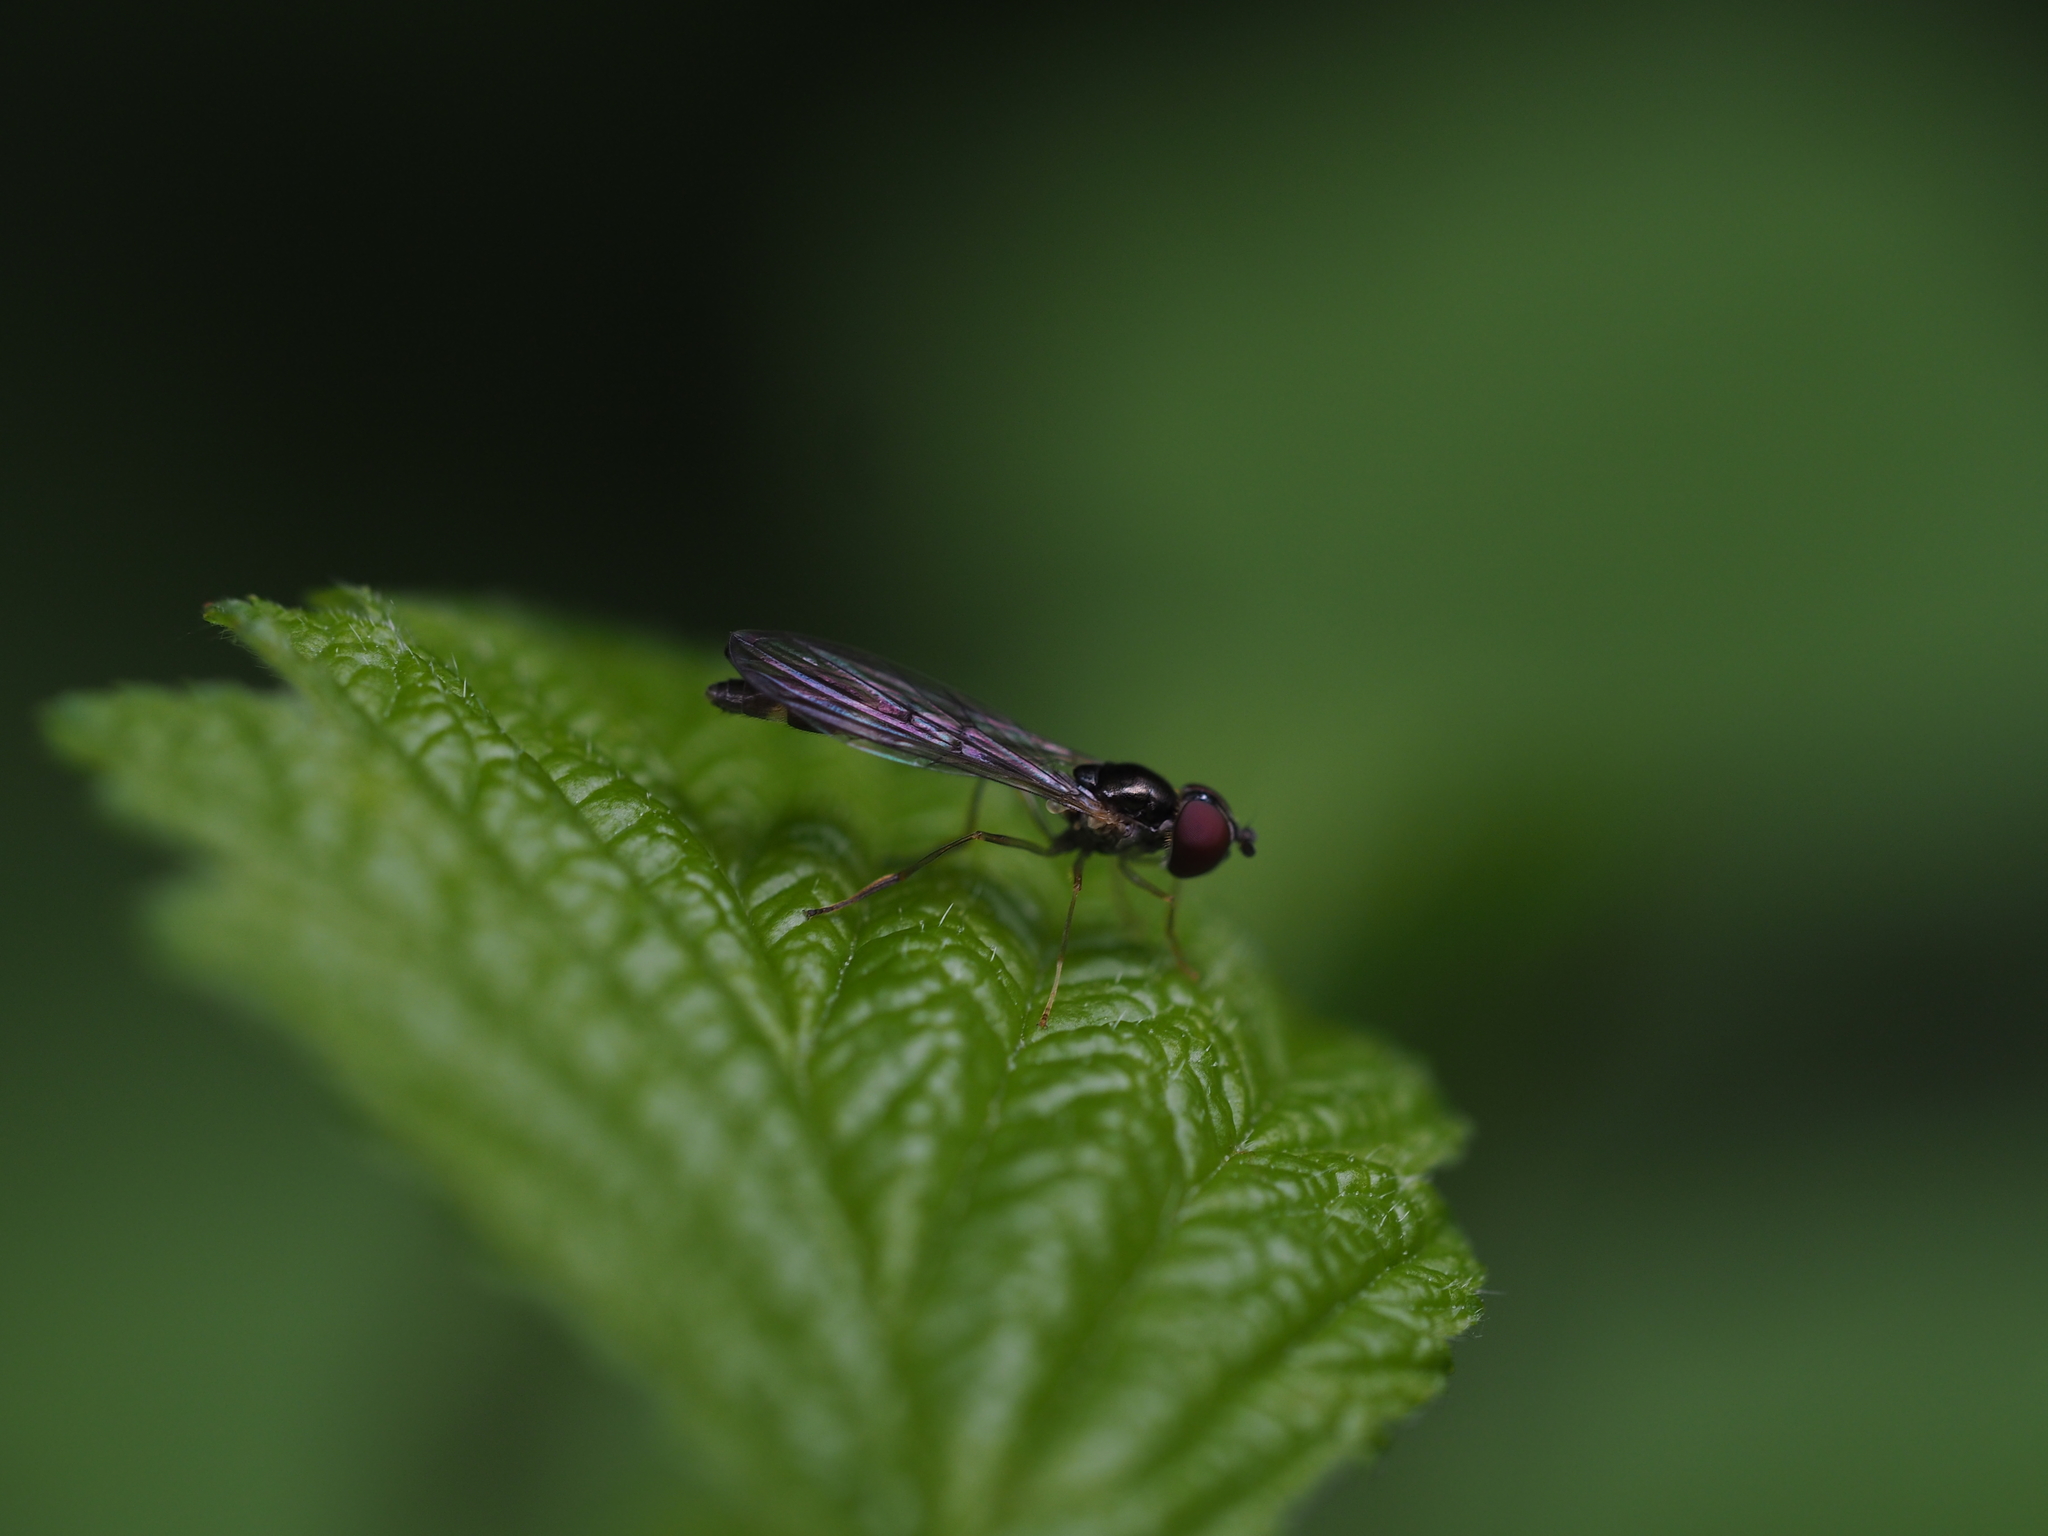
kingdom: Animalia
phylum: Arthropoda
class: Insecta
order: Diptera
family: Syrphidae
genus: Baccha
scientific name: Baccha elongata
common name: Common dainty
